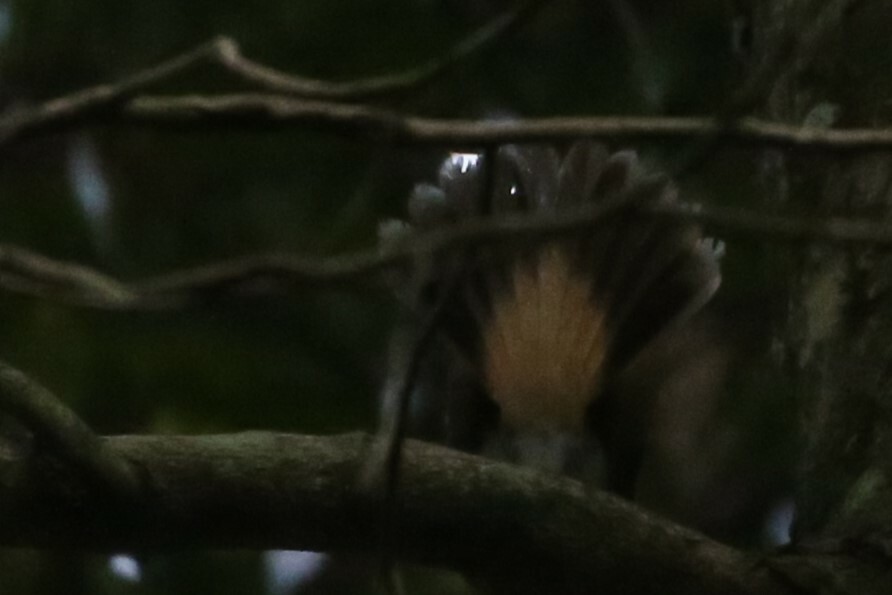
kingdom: Animalia
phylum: Chordata
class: Aves
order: Passeriformes
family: Rhipiduridae
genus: Rhipidura
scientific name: Rhipidura rufifrons
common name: Rufous fantail
